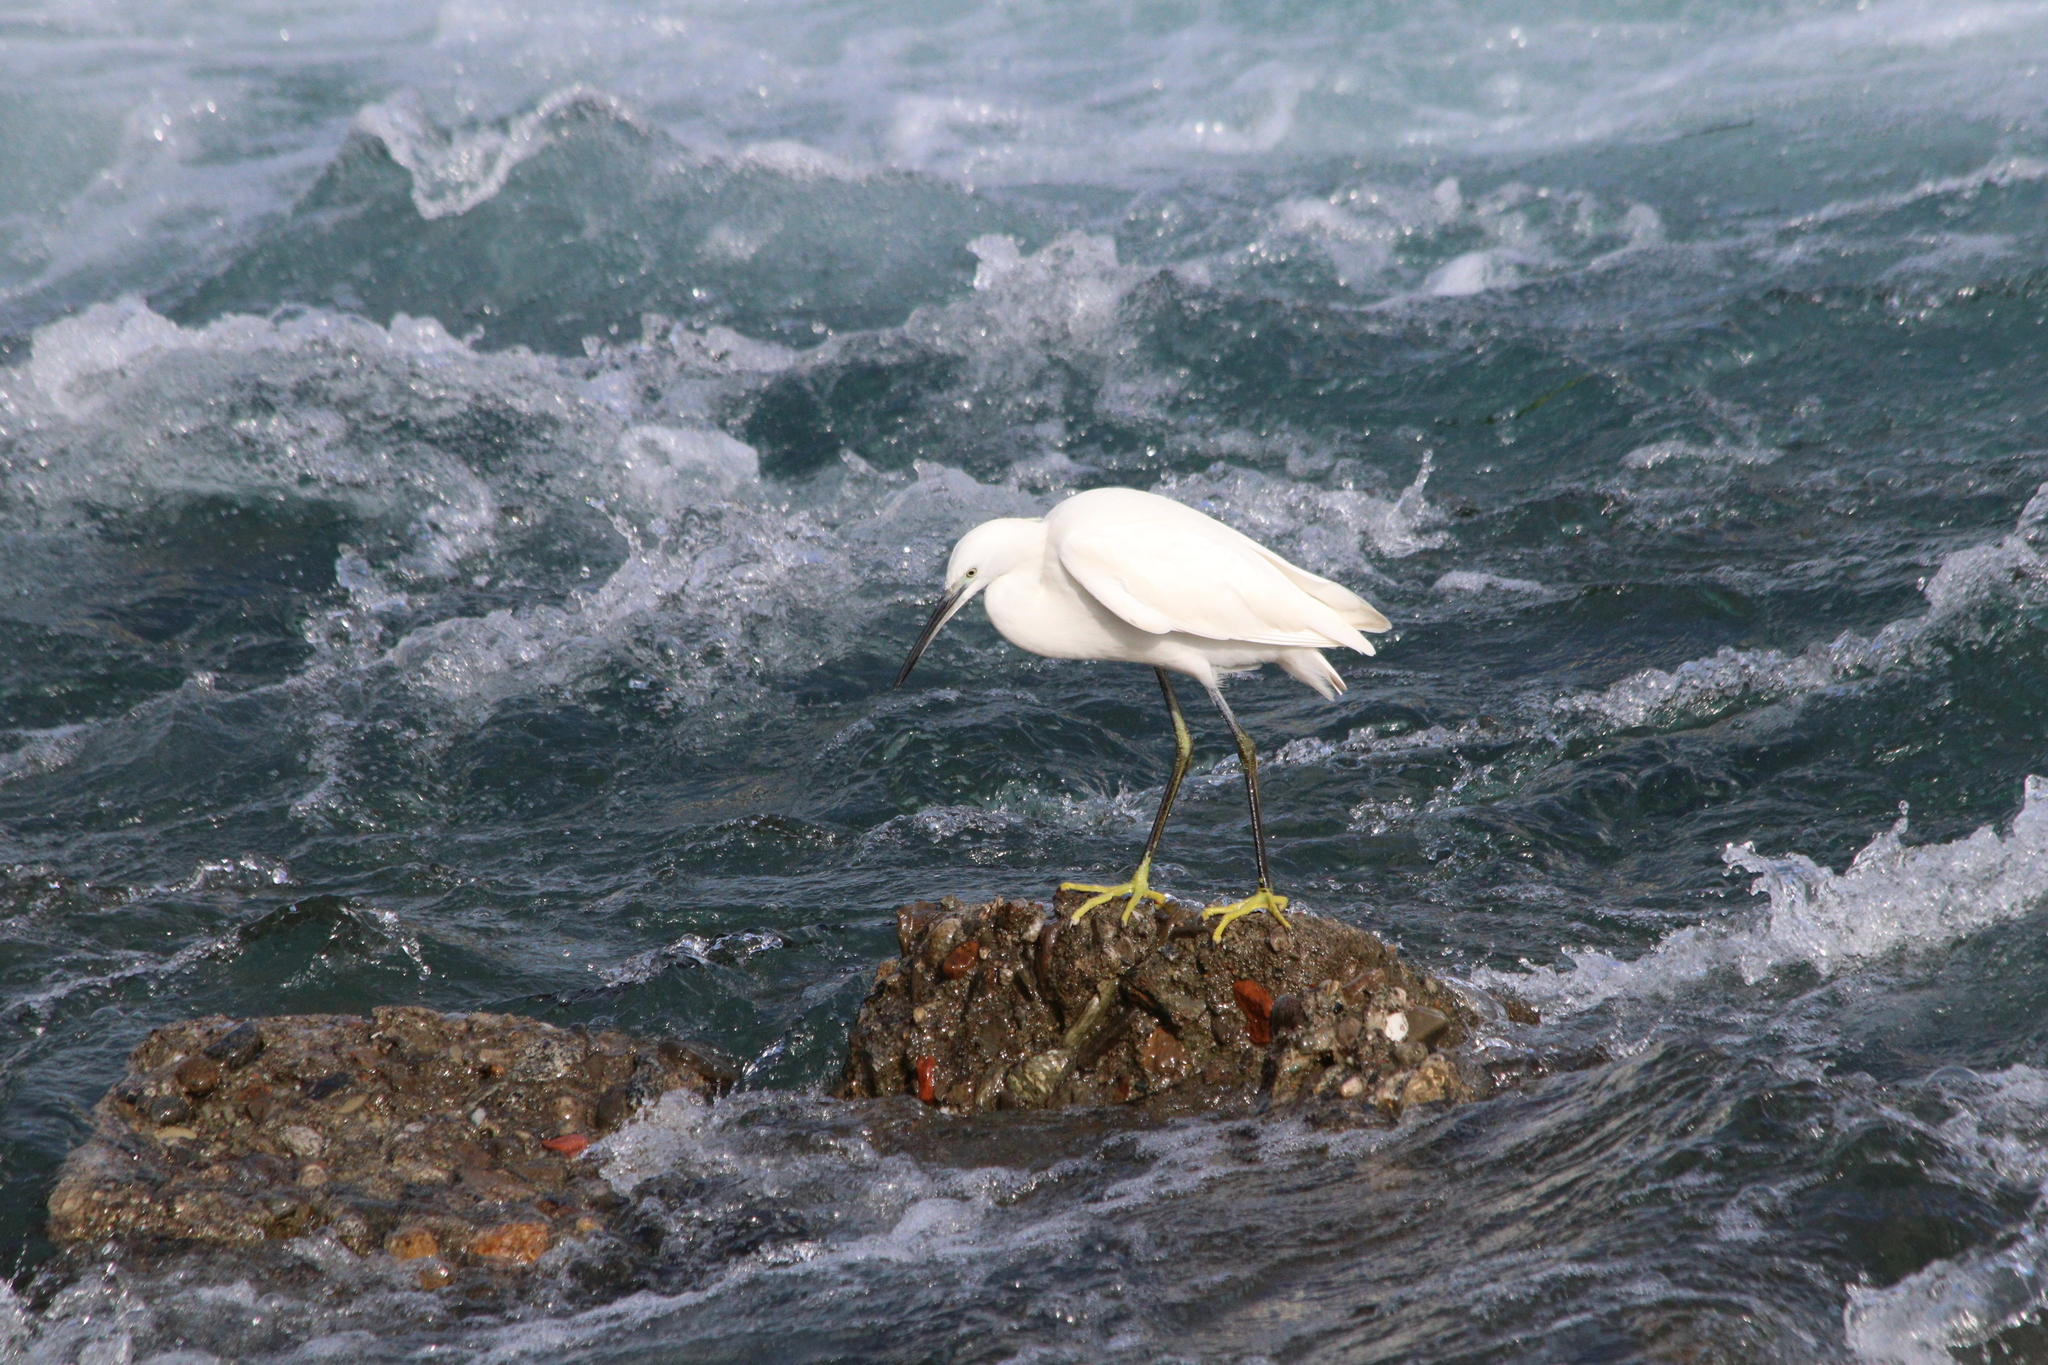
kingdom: Animalia
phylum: Chordata
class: Aves
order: Pelecaniformes
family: Ardeidae
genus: Egretta
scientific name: Egretta garzetta
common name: Little egret
